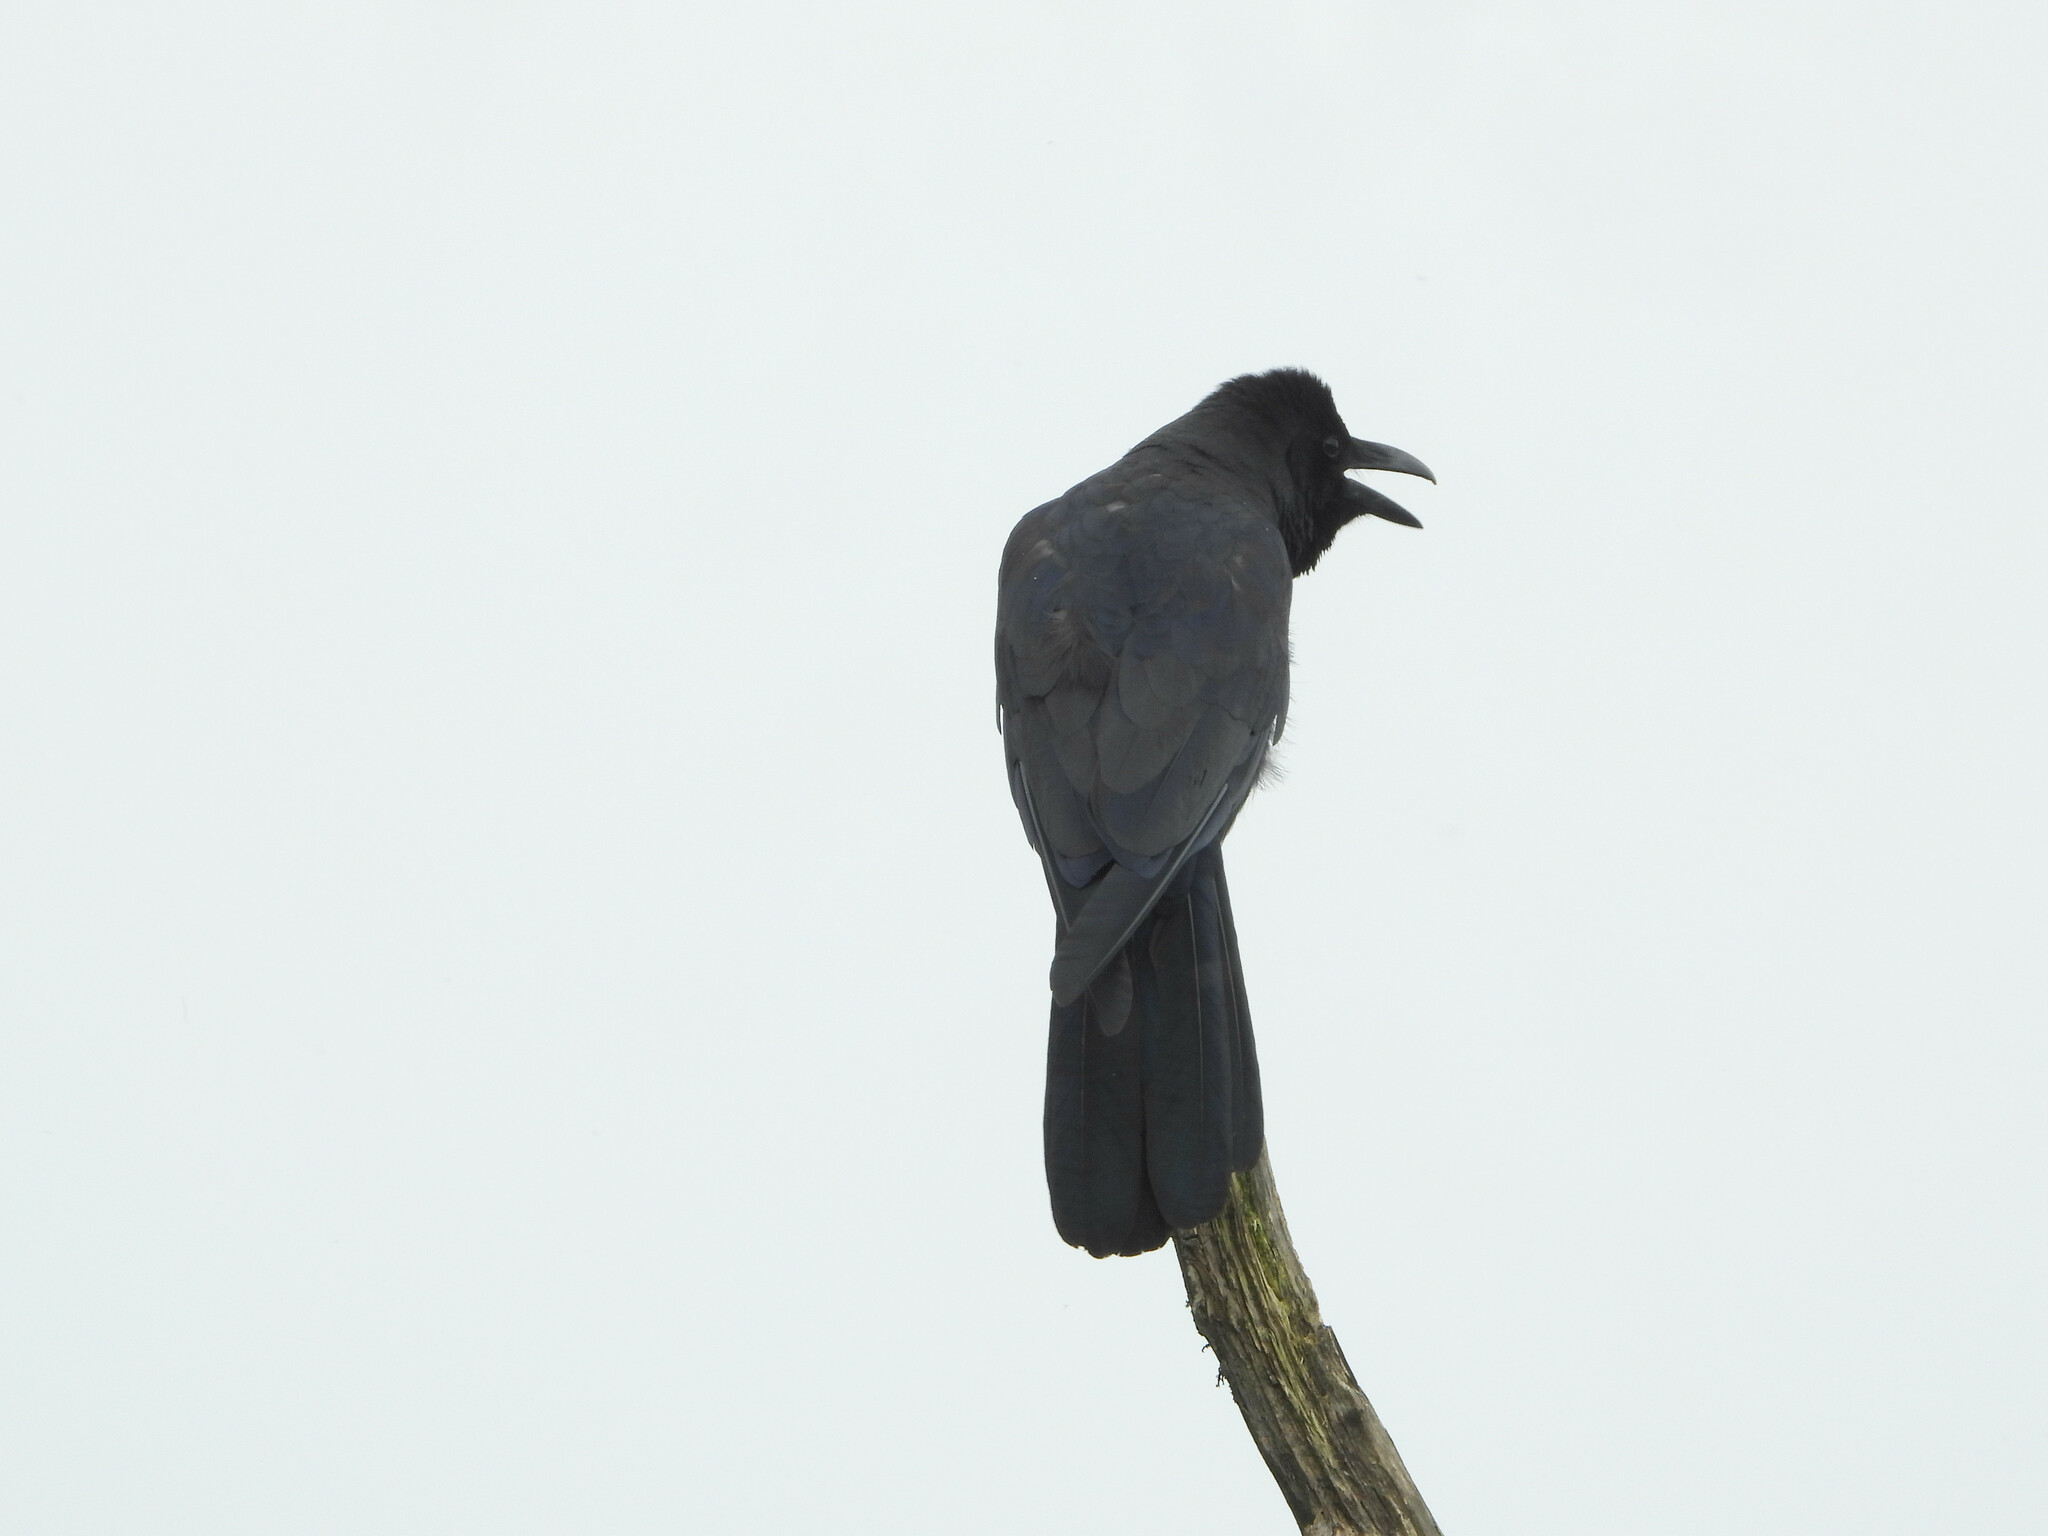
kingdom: Animalia
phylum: Chordata
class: Aves
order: Passeriformes
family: Corvidae
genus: Corvus
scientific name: Corvus macrorhynchos
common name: Large-billed crow
